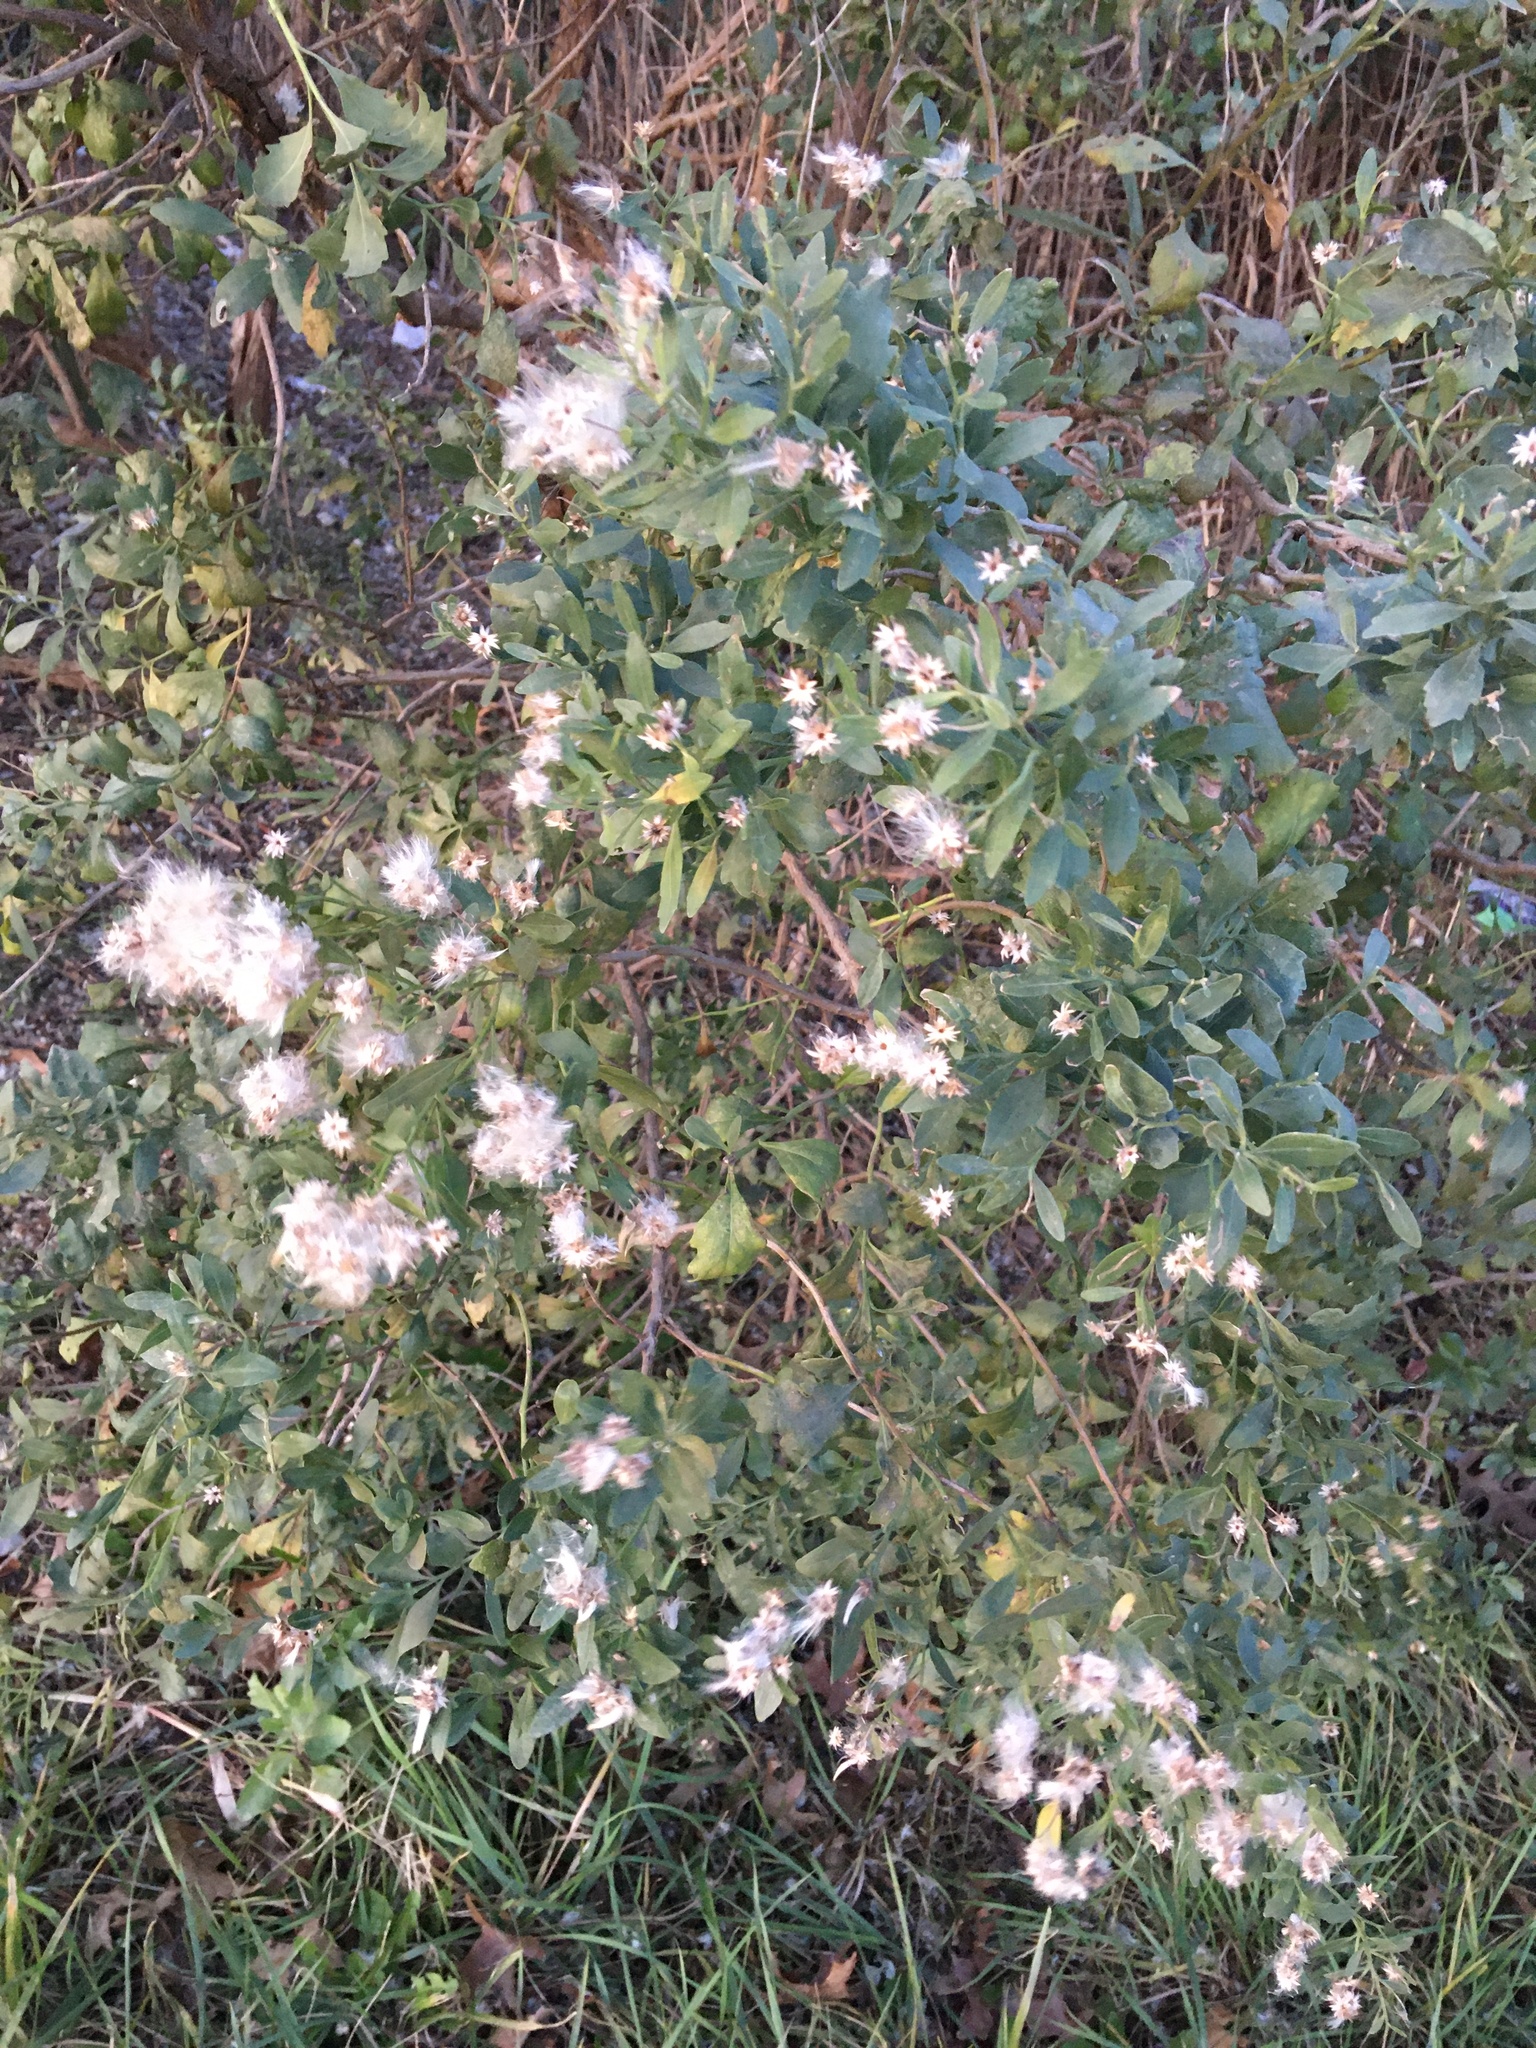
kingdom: Plantae
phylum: Tracheophyta
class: Magnoliopsida
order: Asterales
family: Asteraceae
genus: Baccharis
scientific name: Baccharis halimifolia
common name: Eastern baccharis
